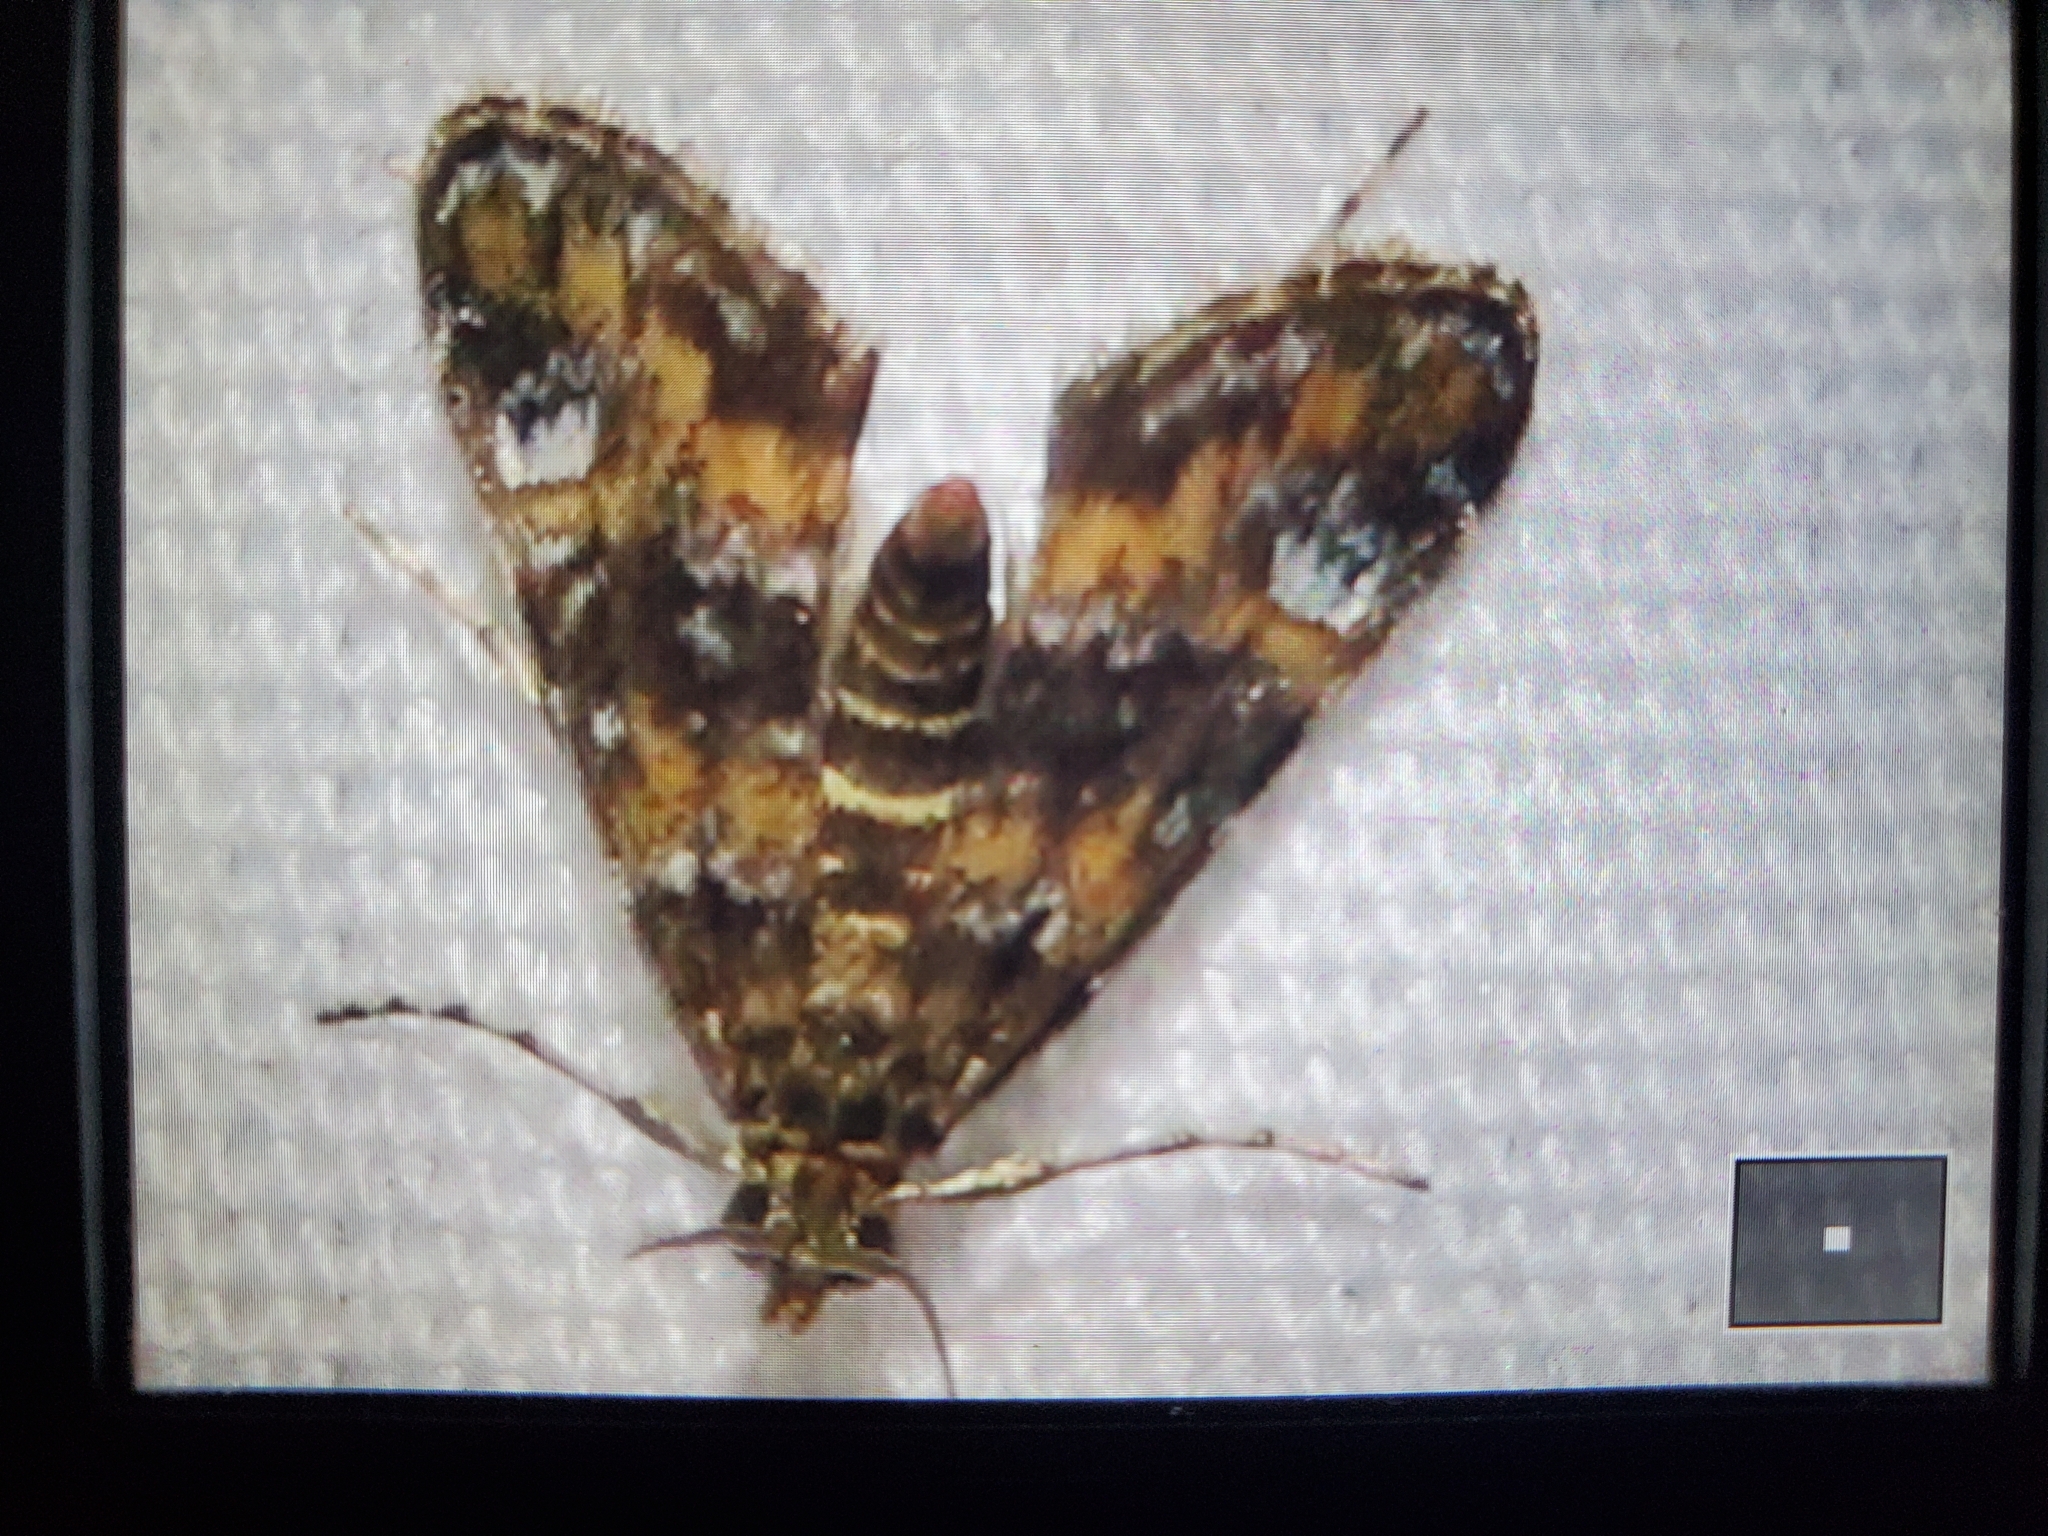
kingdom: Animalia
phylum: Arthropoda
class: Insecta
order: Lepidoptera
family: Crambidae
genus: Elophila
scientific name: Elophila obliteralis
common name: Waterlily leafcutter moth
